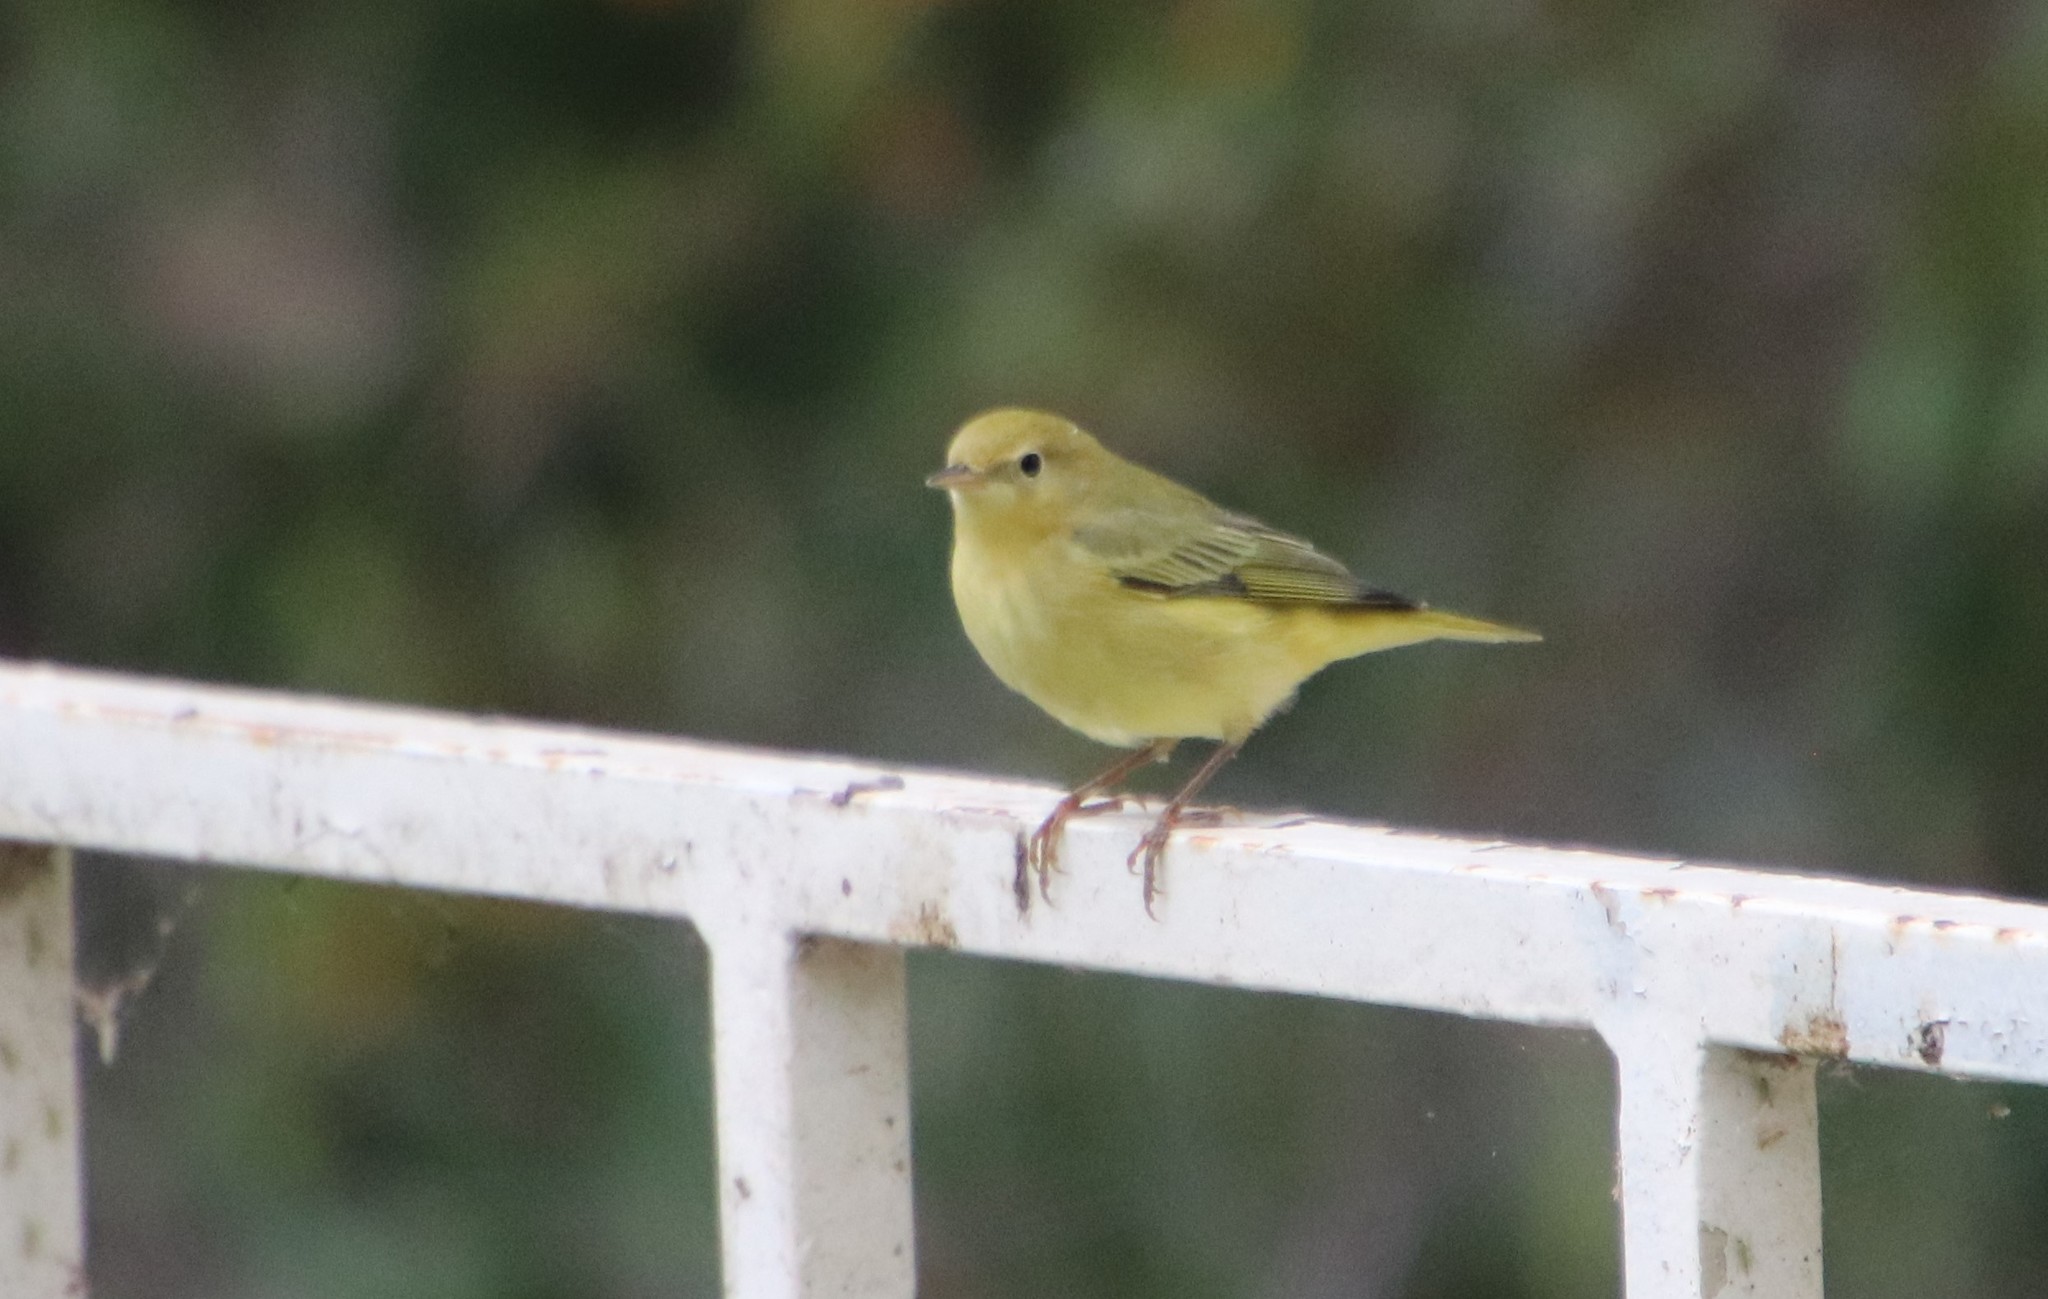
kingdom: Animalia
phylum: Chordata
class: Aves
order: Passeriformes
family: Parulidae
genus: Setophaga
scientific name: Setophaga petechia
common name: Yellow warbler
